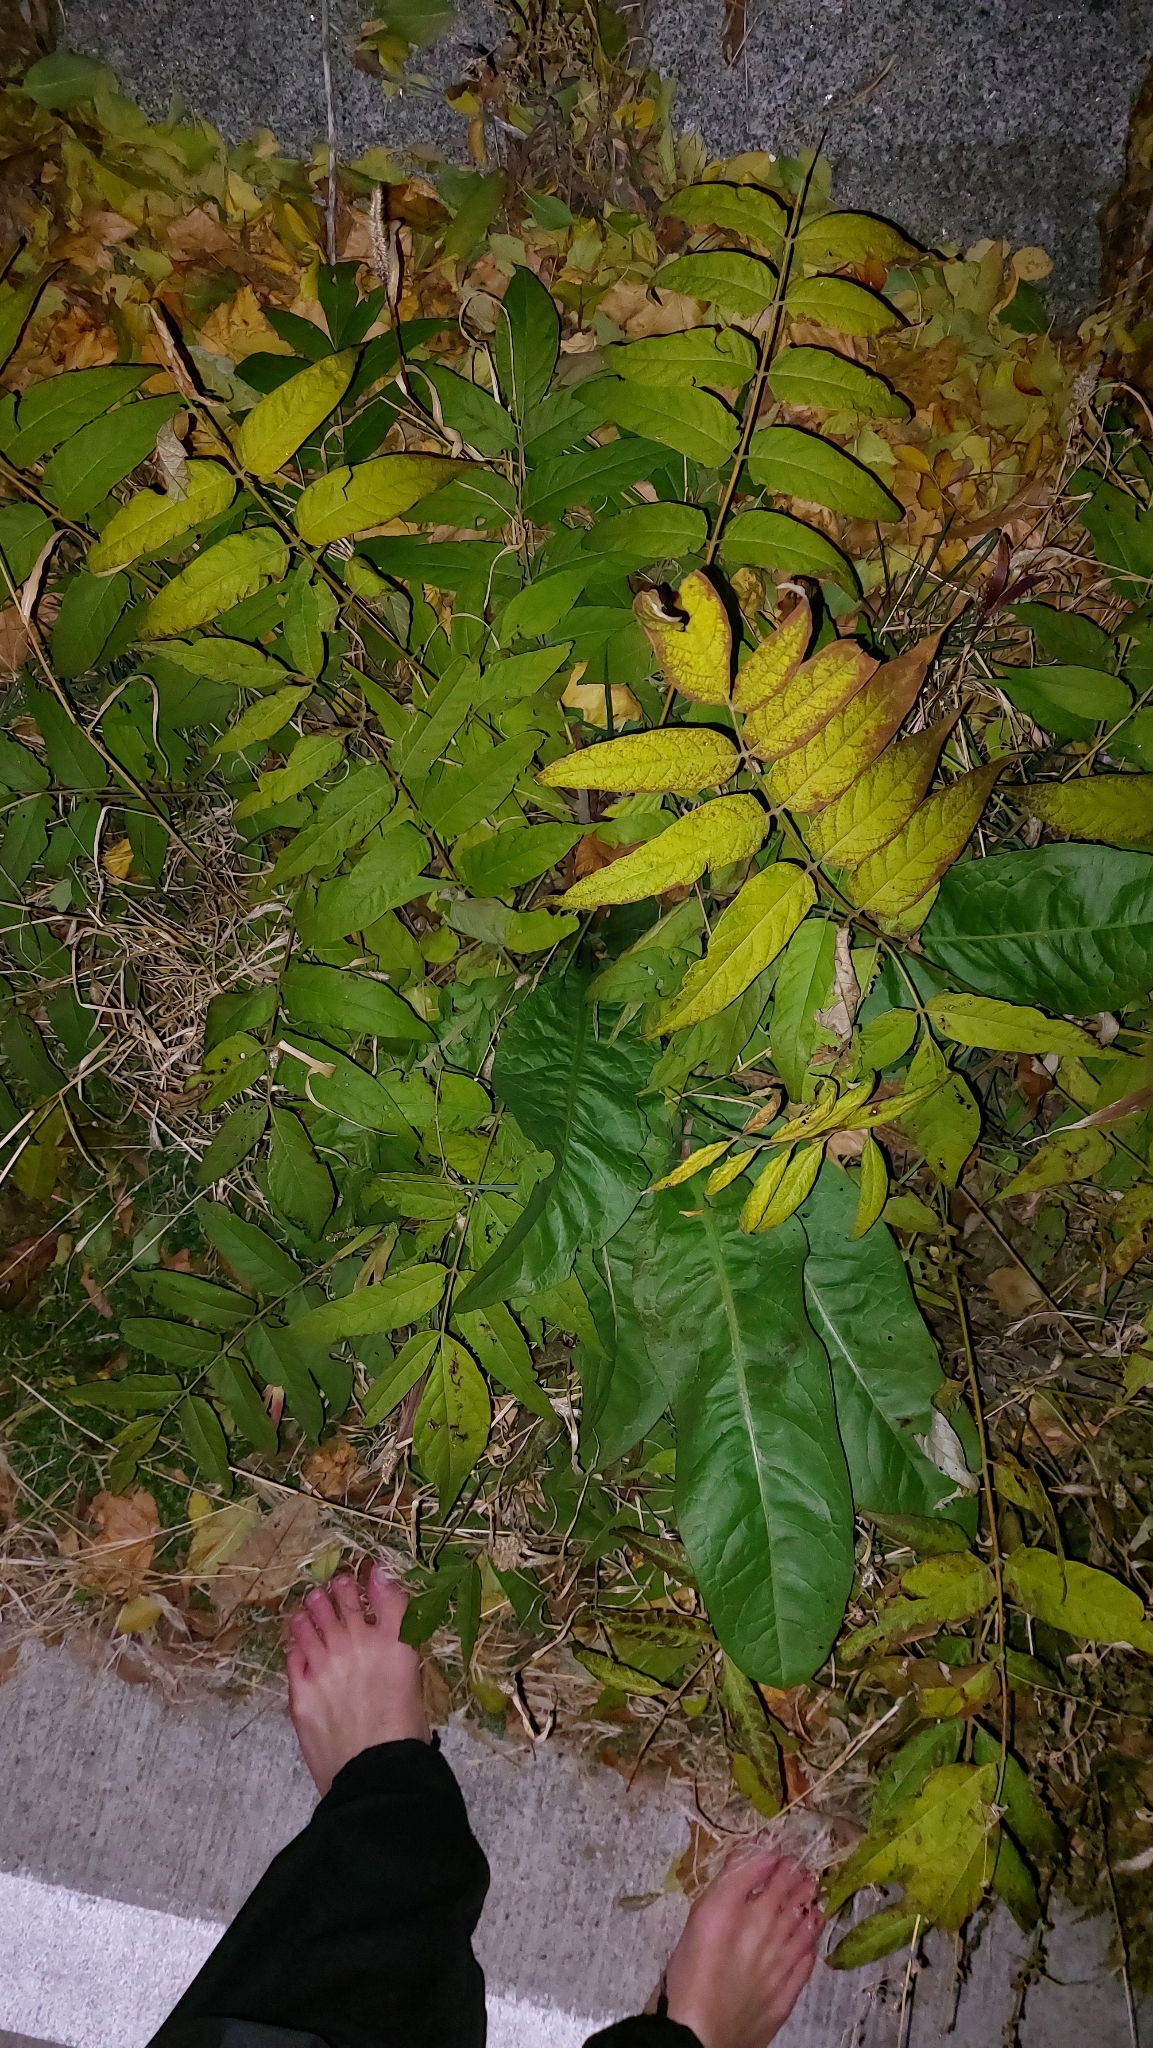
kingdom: Plantae
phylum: Tracheophyta
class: Magnoliopsida
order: Sapindales
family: Simaroubaceae
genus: Ailanthus
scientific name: Ailanthus altissima
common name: Tree-of-heaven
